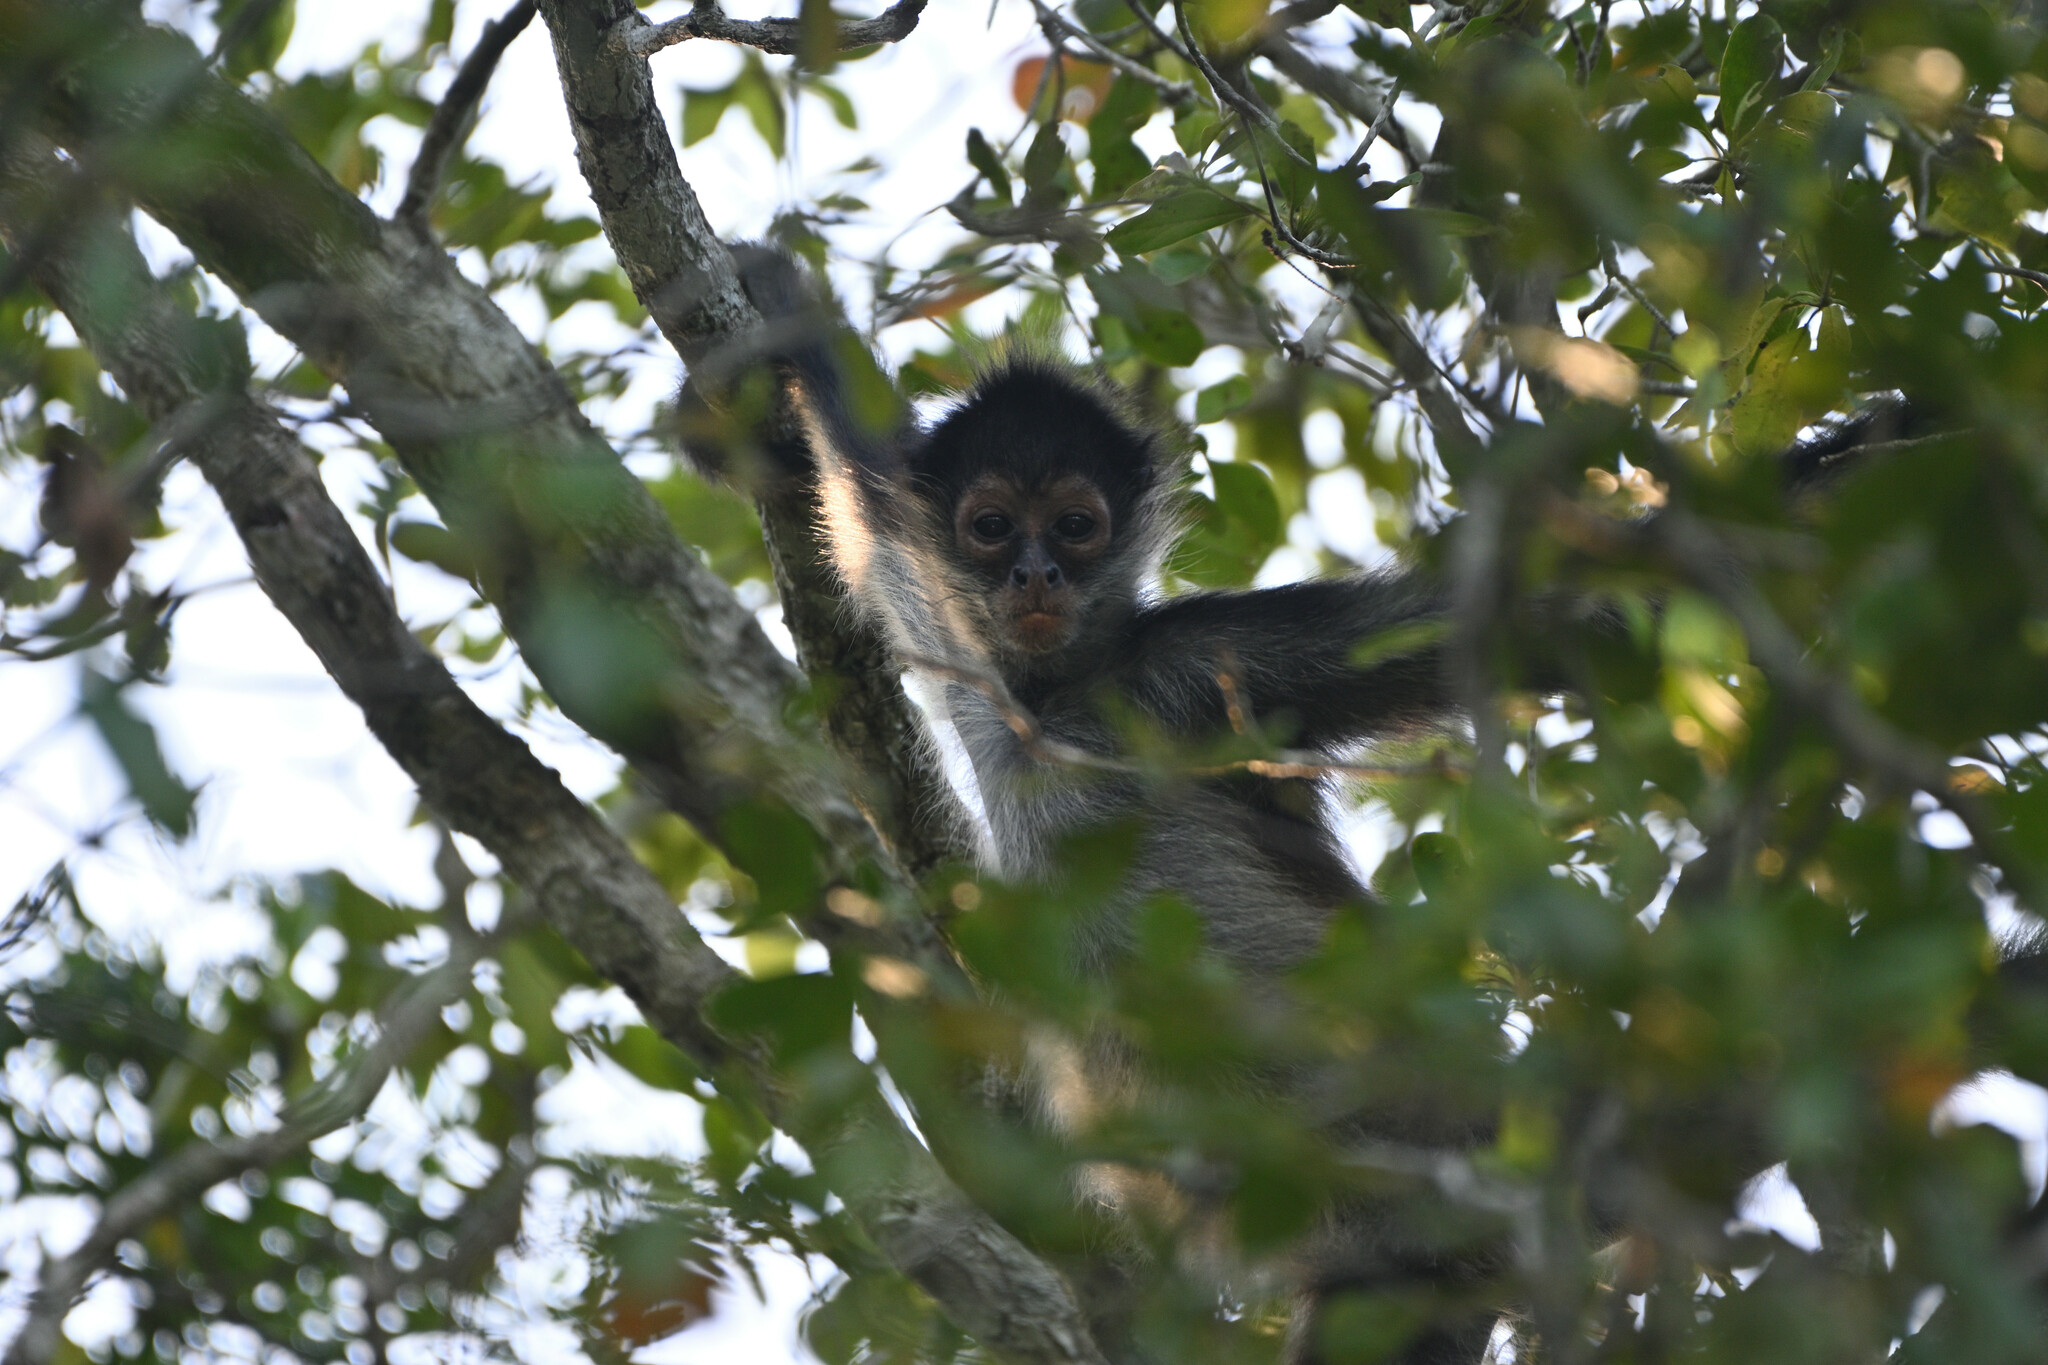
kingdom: Animalia
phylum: Chordata
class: Mammalia
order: Primates
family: Atelidae
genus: Ateles
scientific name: Ateles geoffroyi
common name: Black-handed spider monkey
